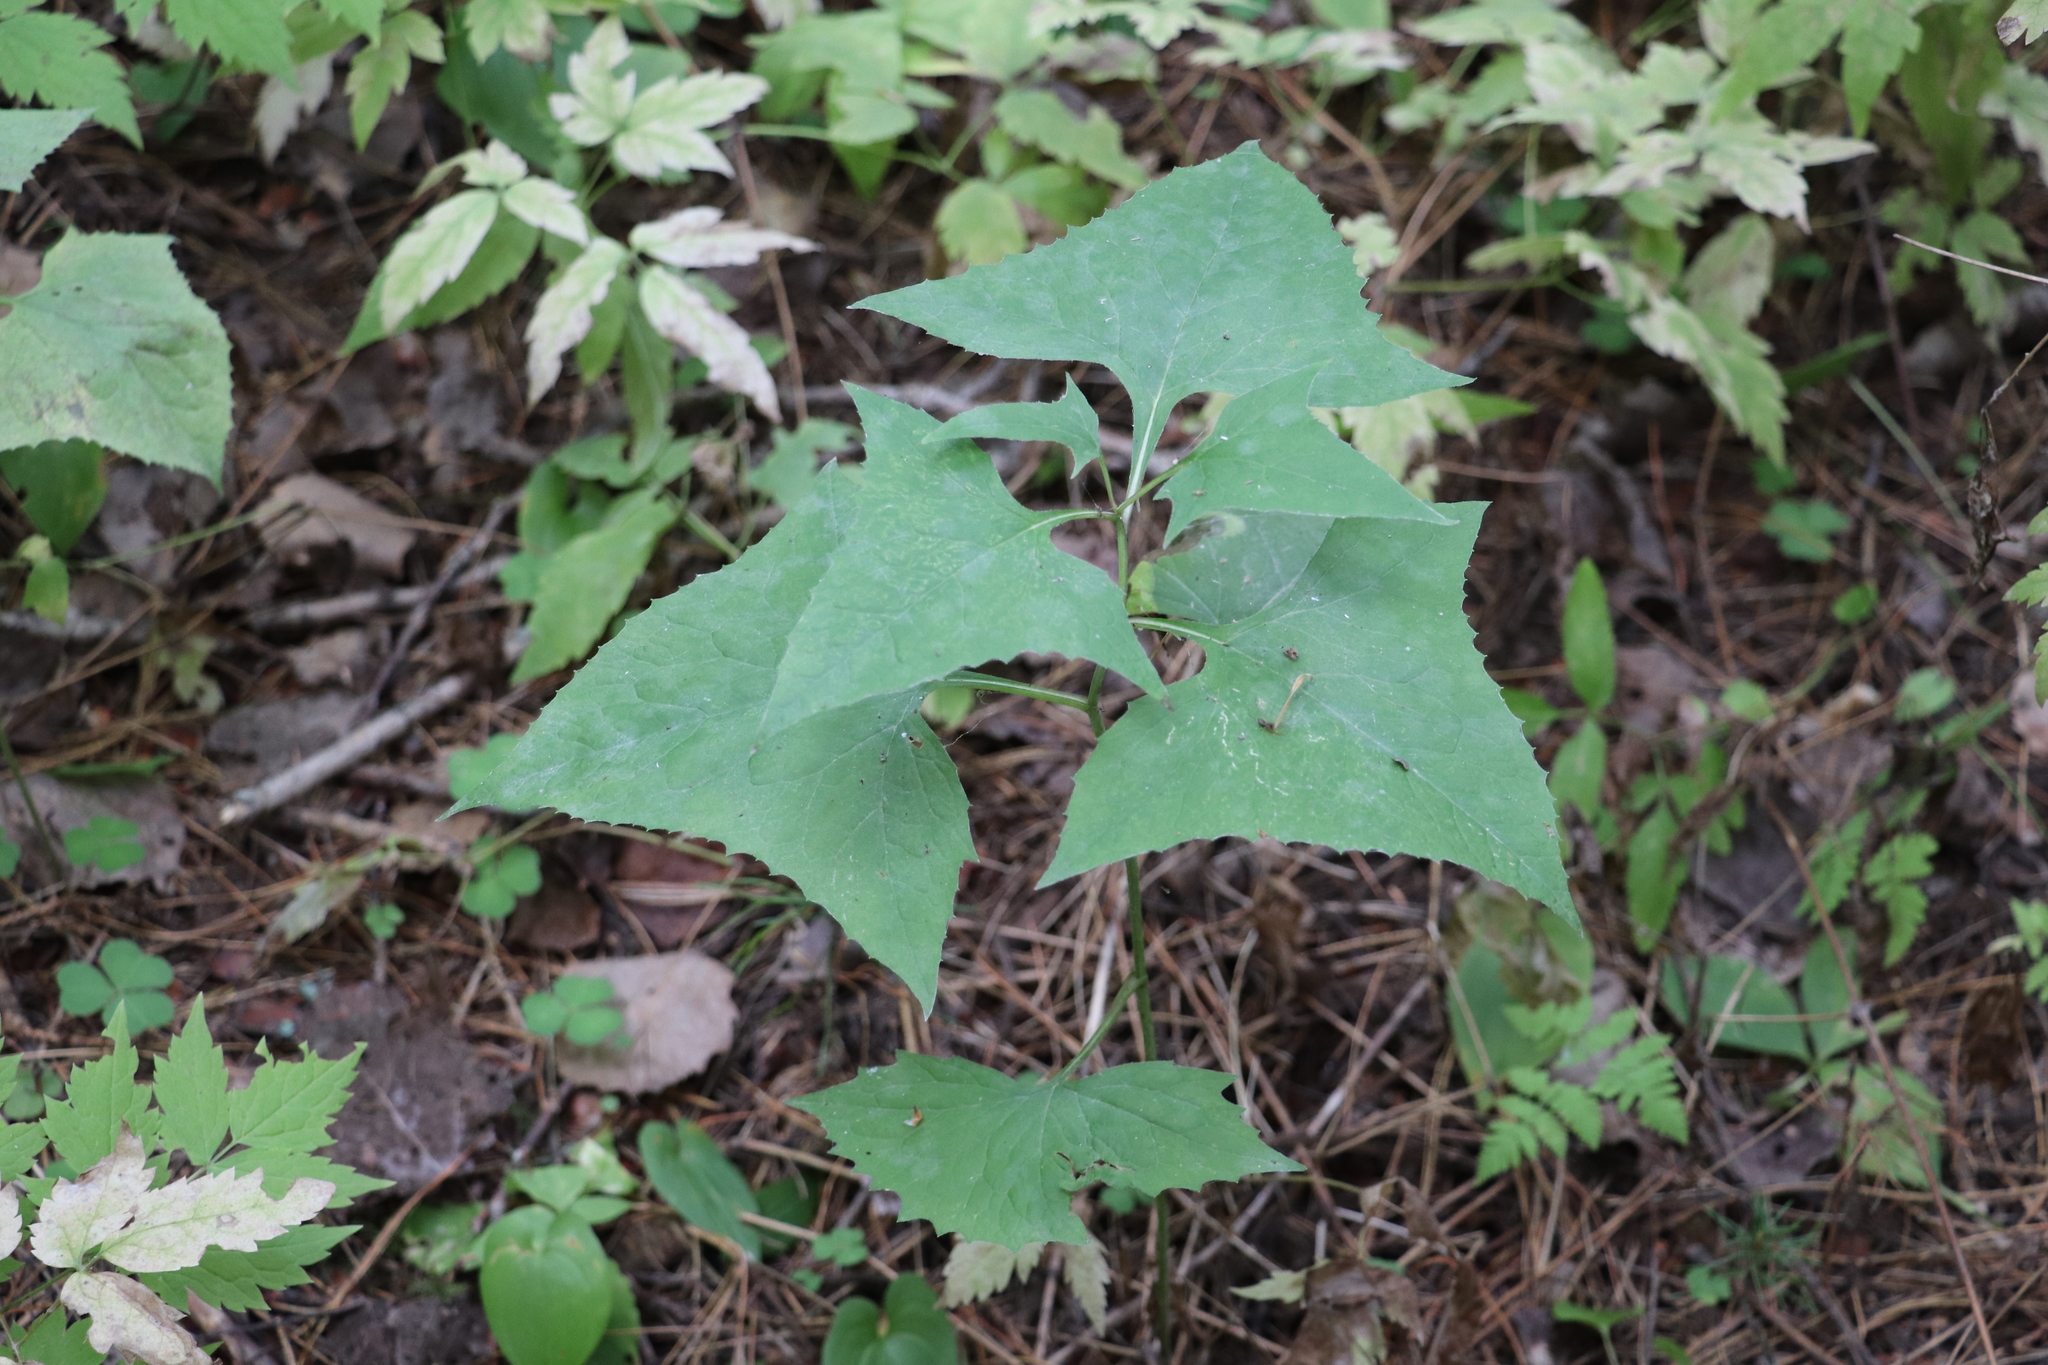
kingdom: Plantae
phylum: Tracheophyta
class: Magnoliopsida
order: Asterales
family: Asteraceae
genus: Parasenecio
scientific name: Parasenecio hastatus
